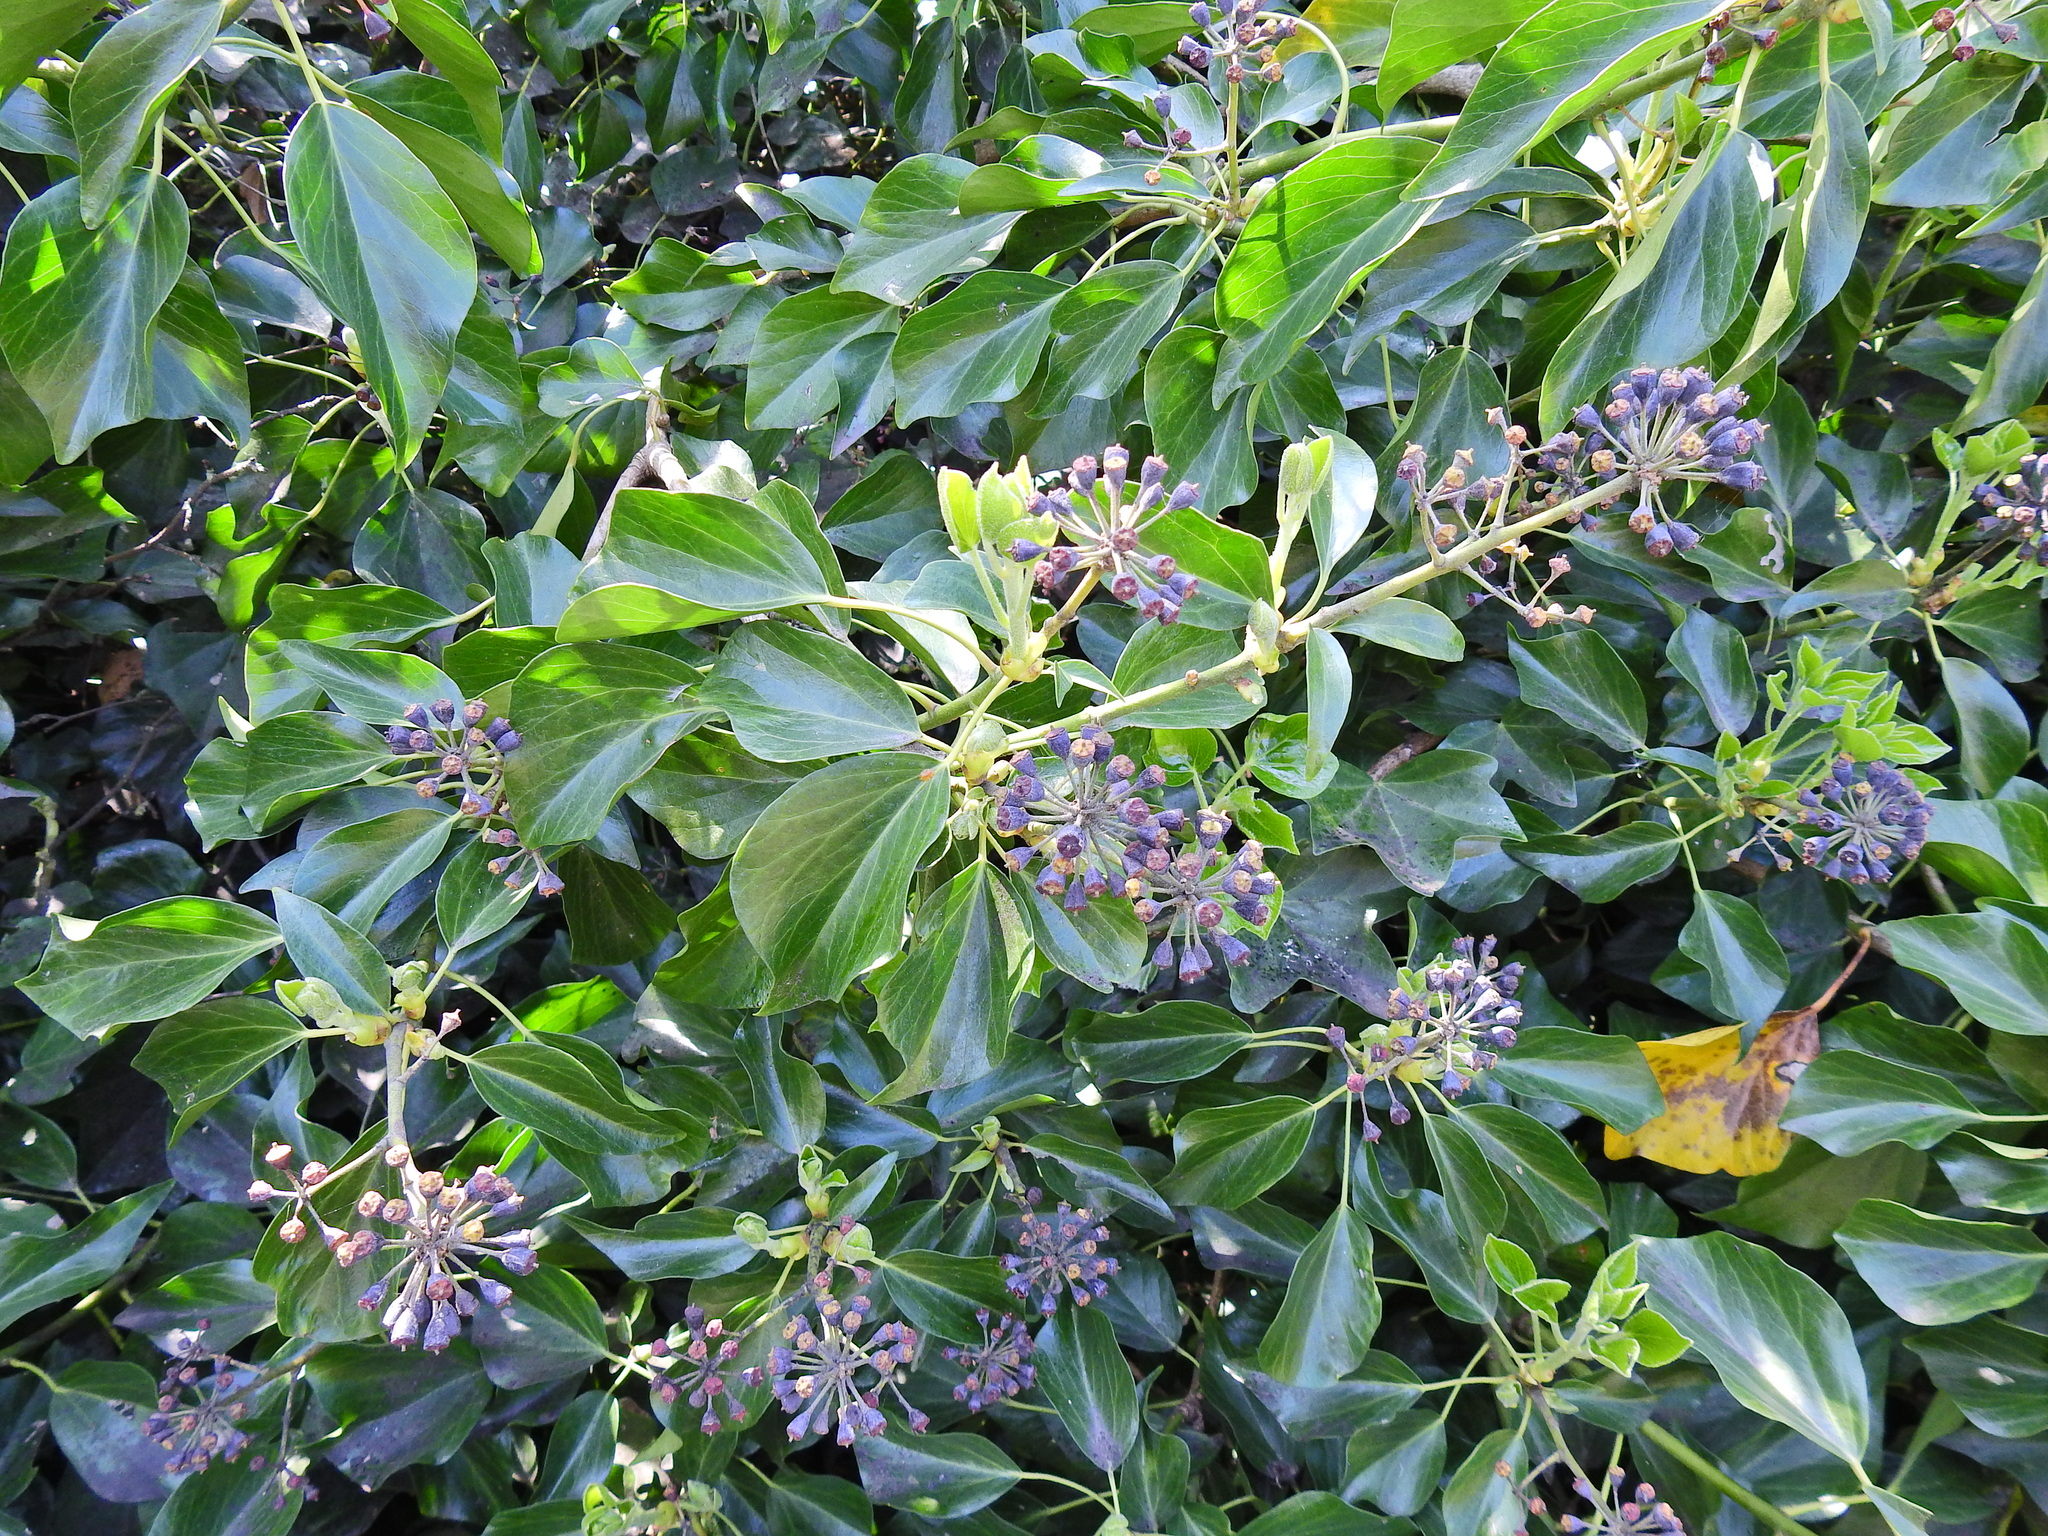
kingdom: Plantae
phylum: Tracheophyta
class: Magnoliopsida
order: Apiales
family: Araliaceae
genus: Hedera
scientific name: Hedera helix
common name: Ivy
